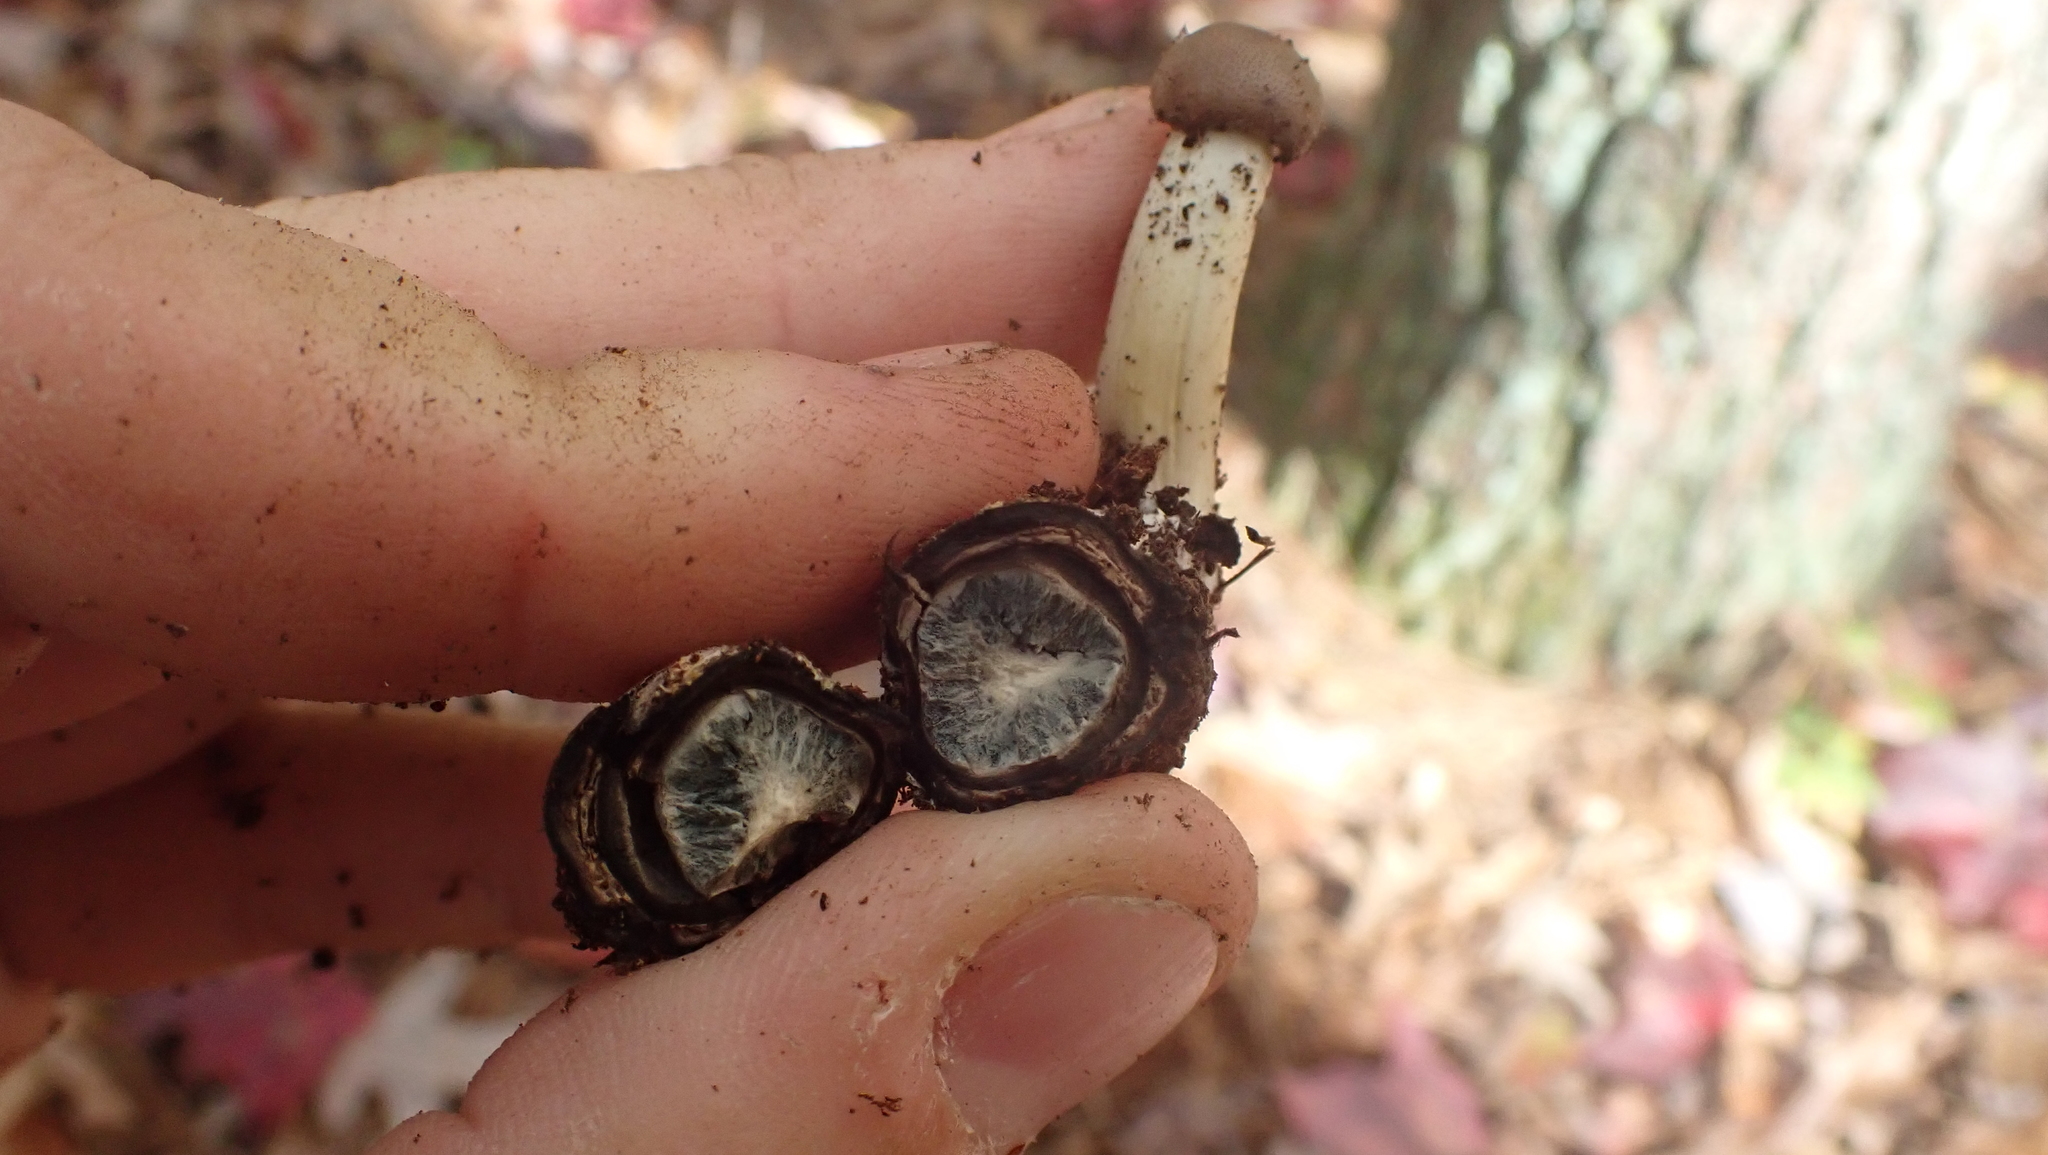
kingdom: Fungi
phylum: Ascomycota
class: Sordariomycetes
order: Hypocreales
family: Ophiocordycipitaceae
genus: Tolypocladium
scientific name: Tolypocladium capitatum
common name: Capitate truffleclub
